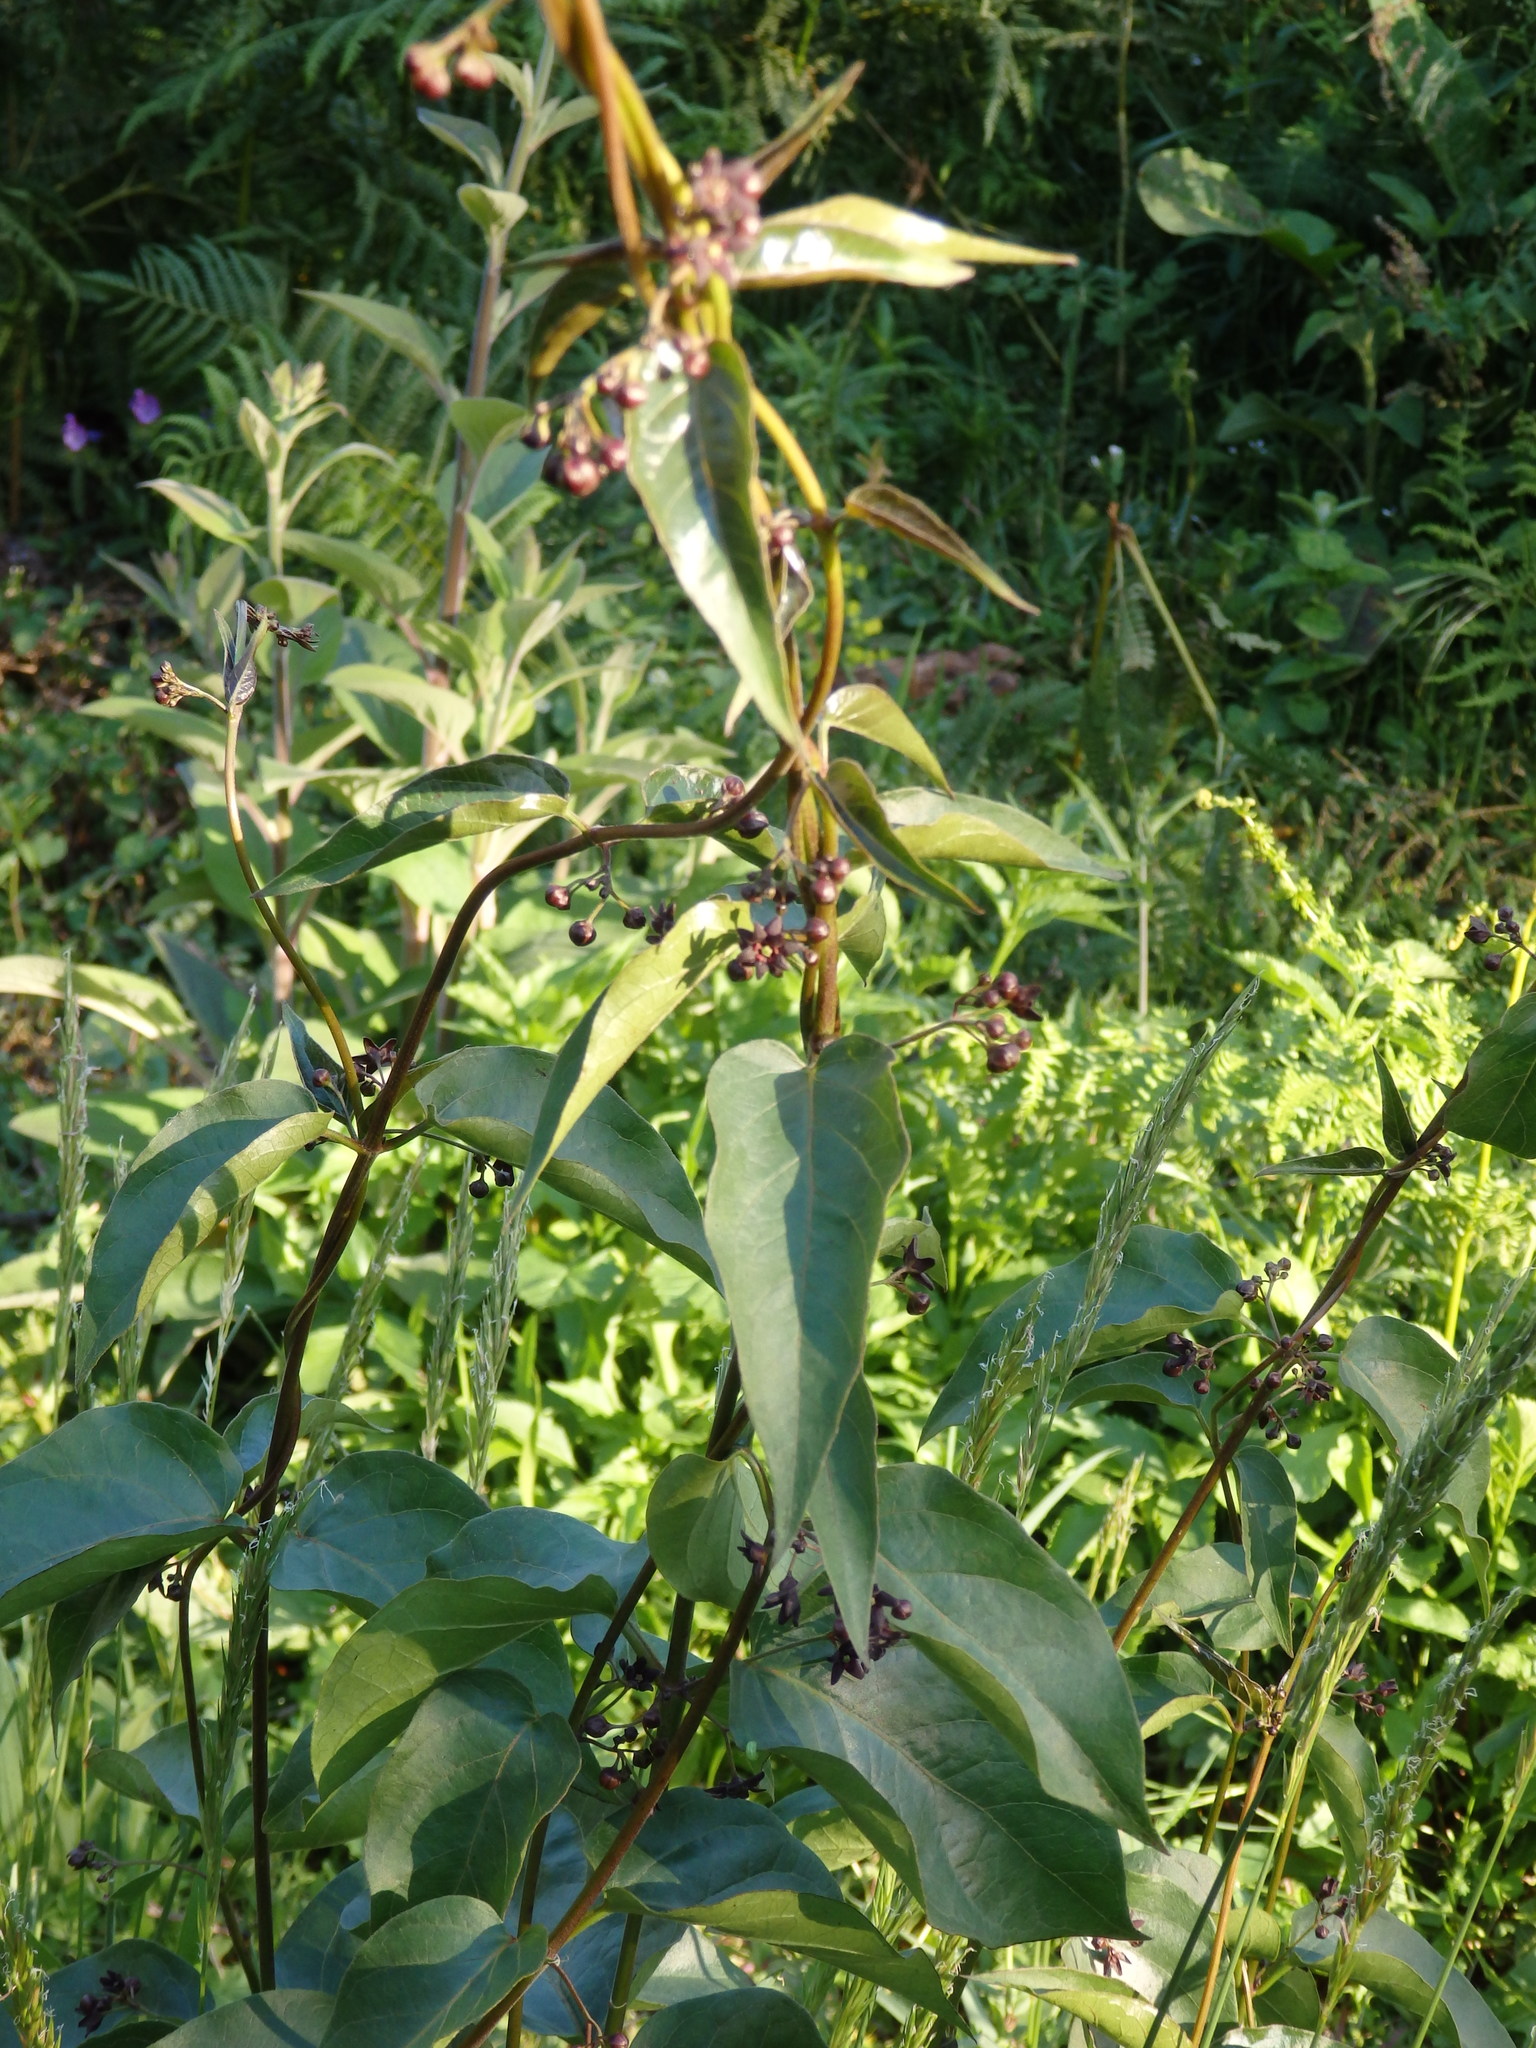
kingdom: Plantae
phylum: Tracheophyta
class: Magnoliopsida
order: Gentianales
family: Apocynaceae
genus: Vincetoxicum
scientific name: Vincetoxicum nigrum
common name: Black swallow-wort
